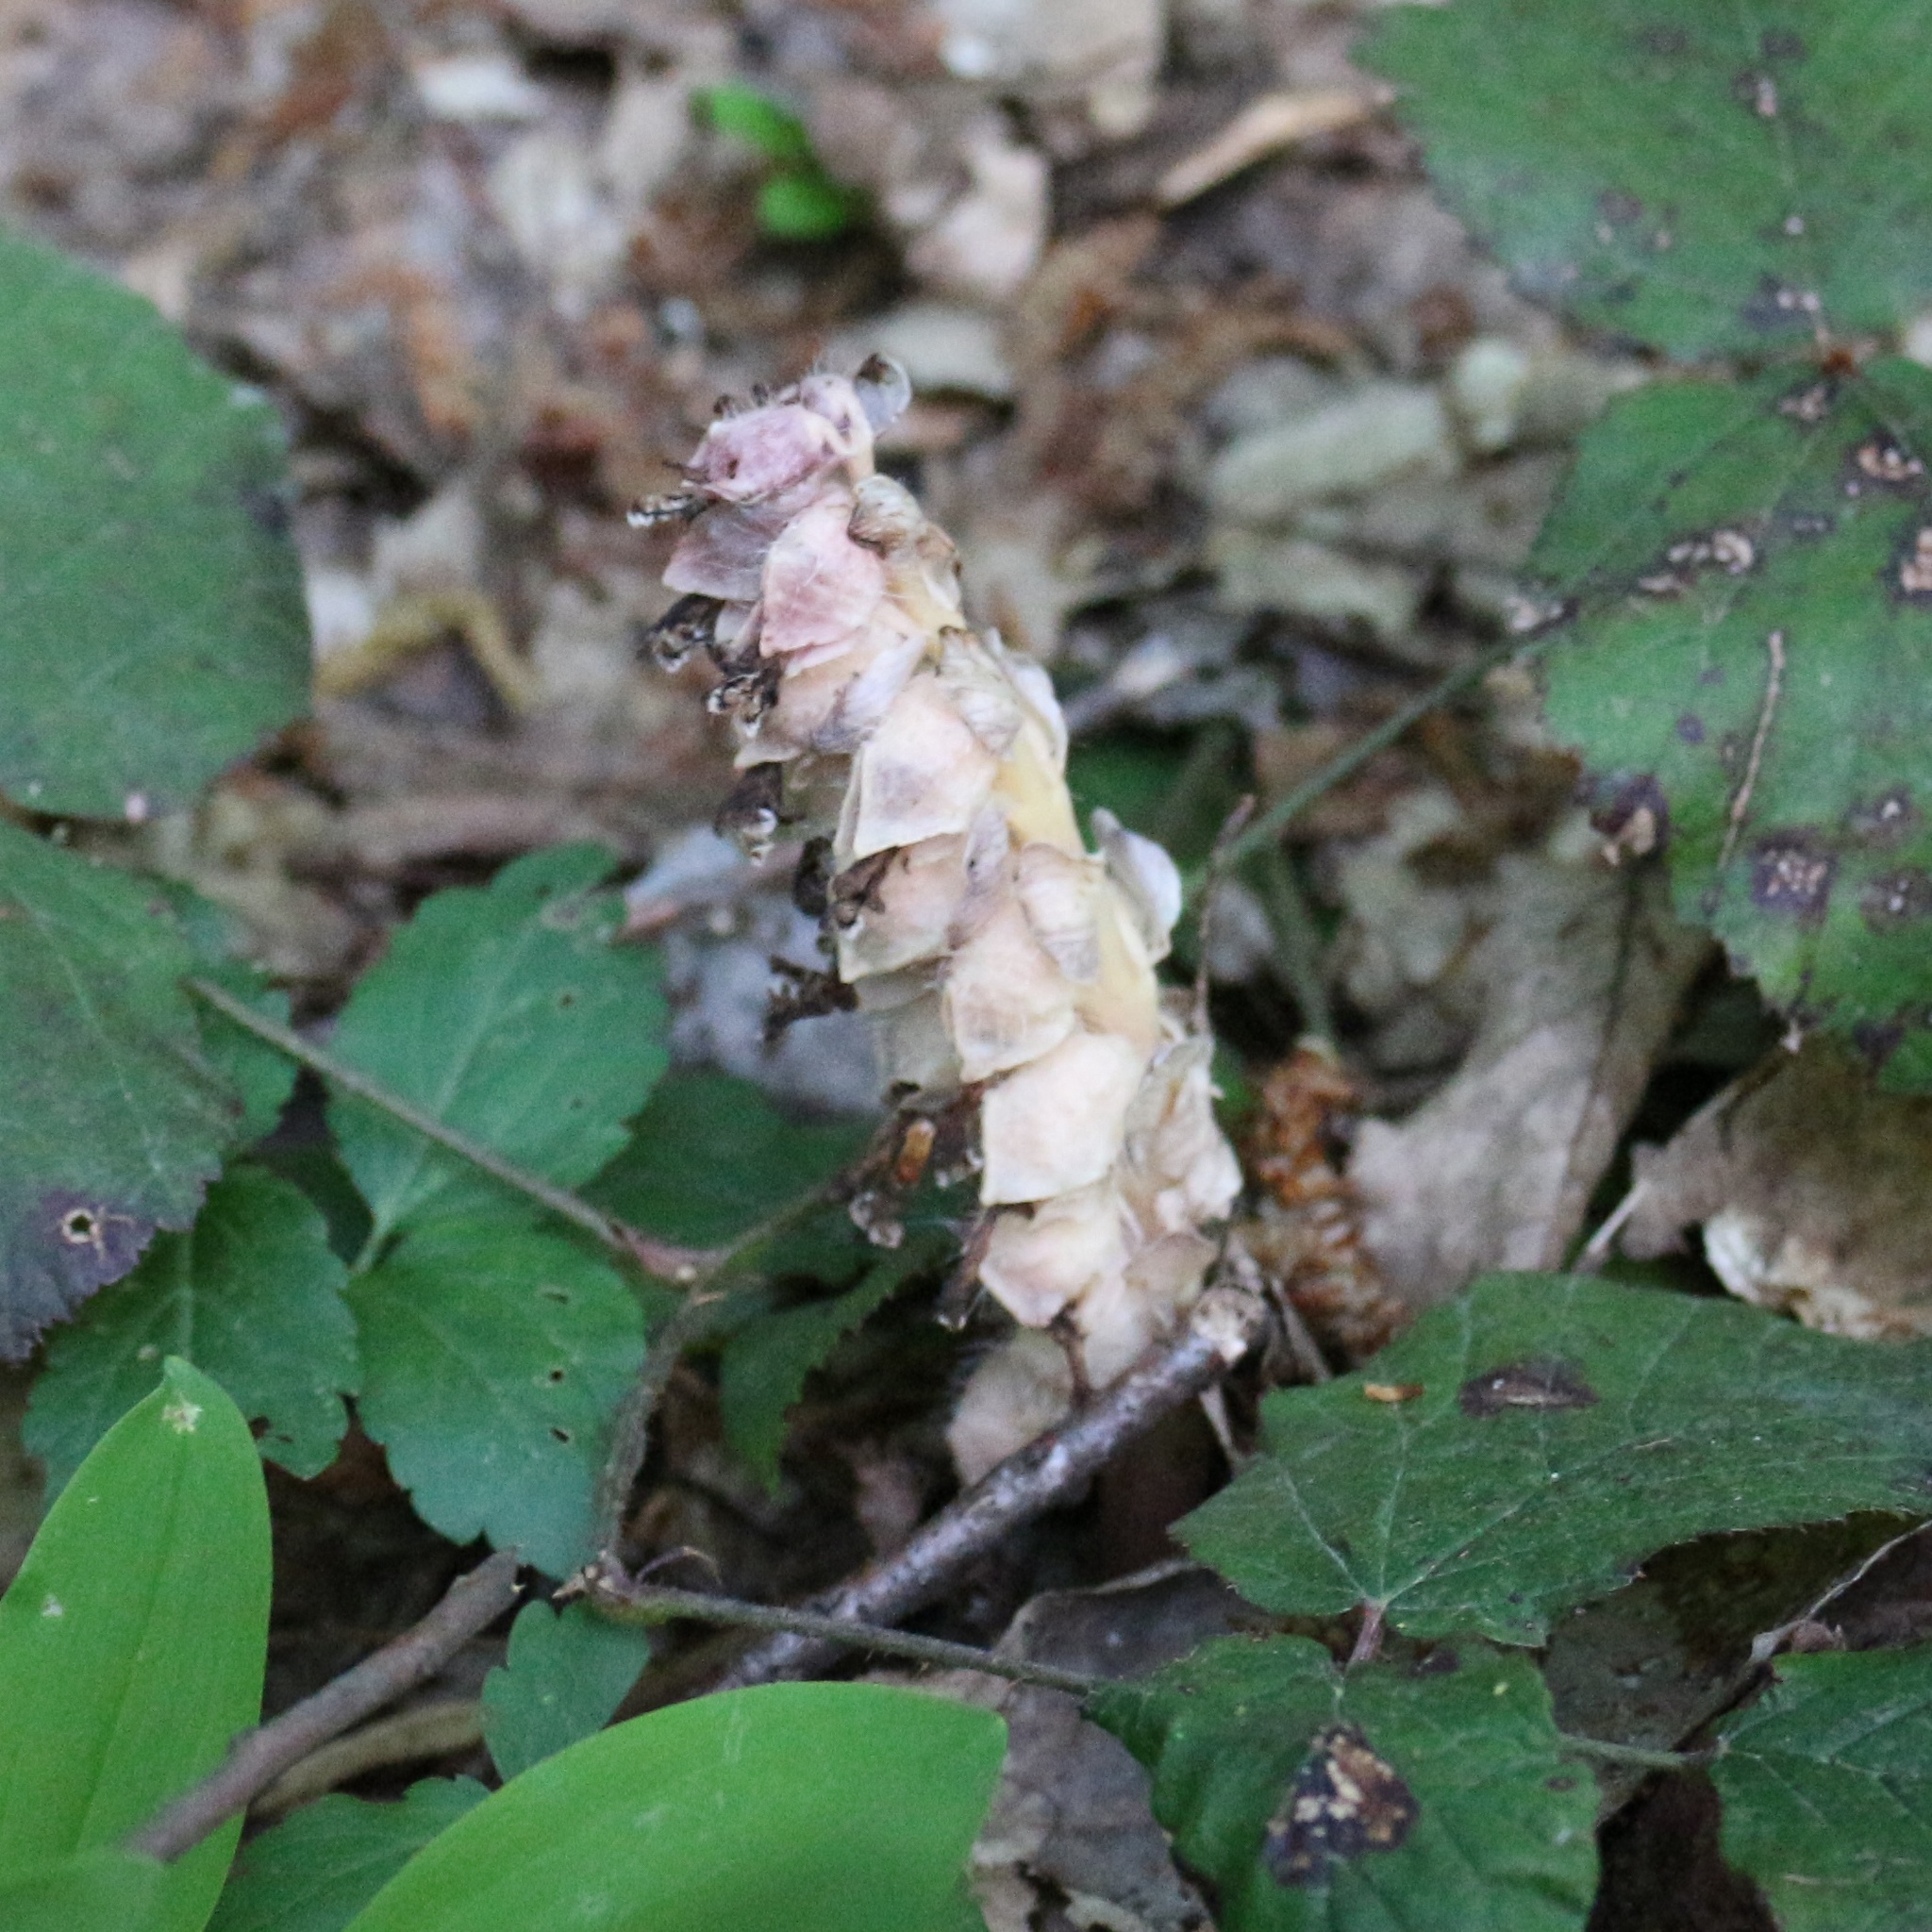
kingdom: Plantae
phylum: Tracheophyta
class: Magnoliopsida
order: Lamiales
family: Orobanchaceae
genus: Lathraea
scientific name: Lathraea squamaria
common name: Toothwort
